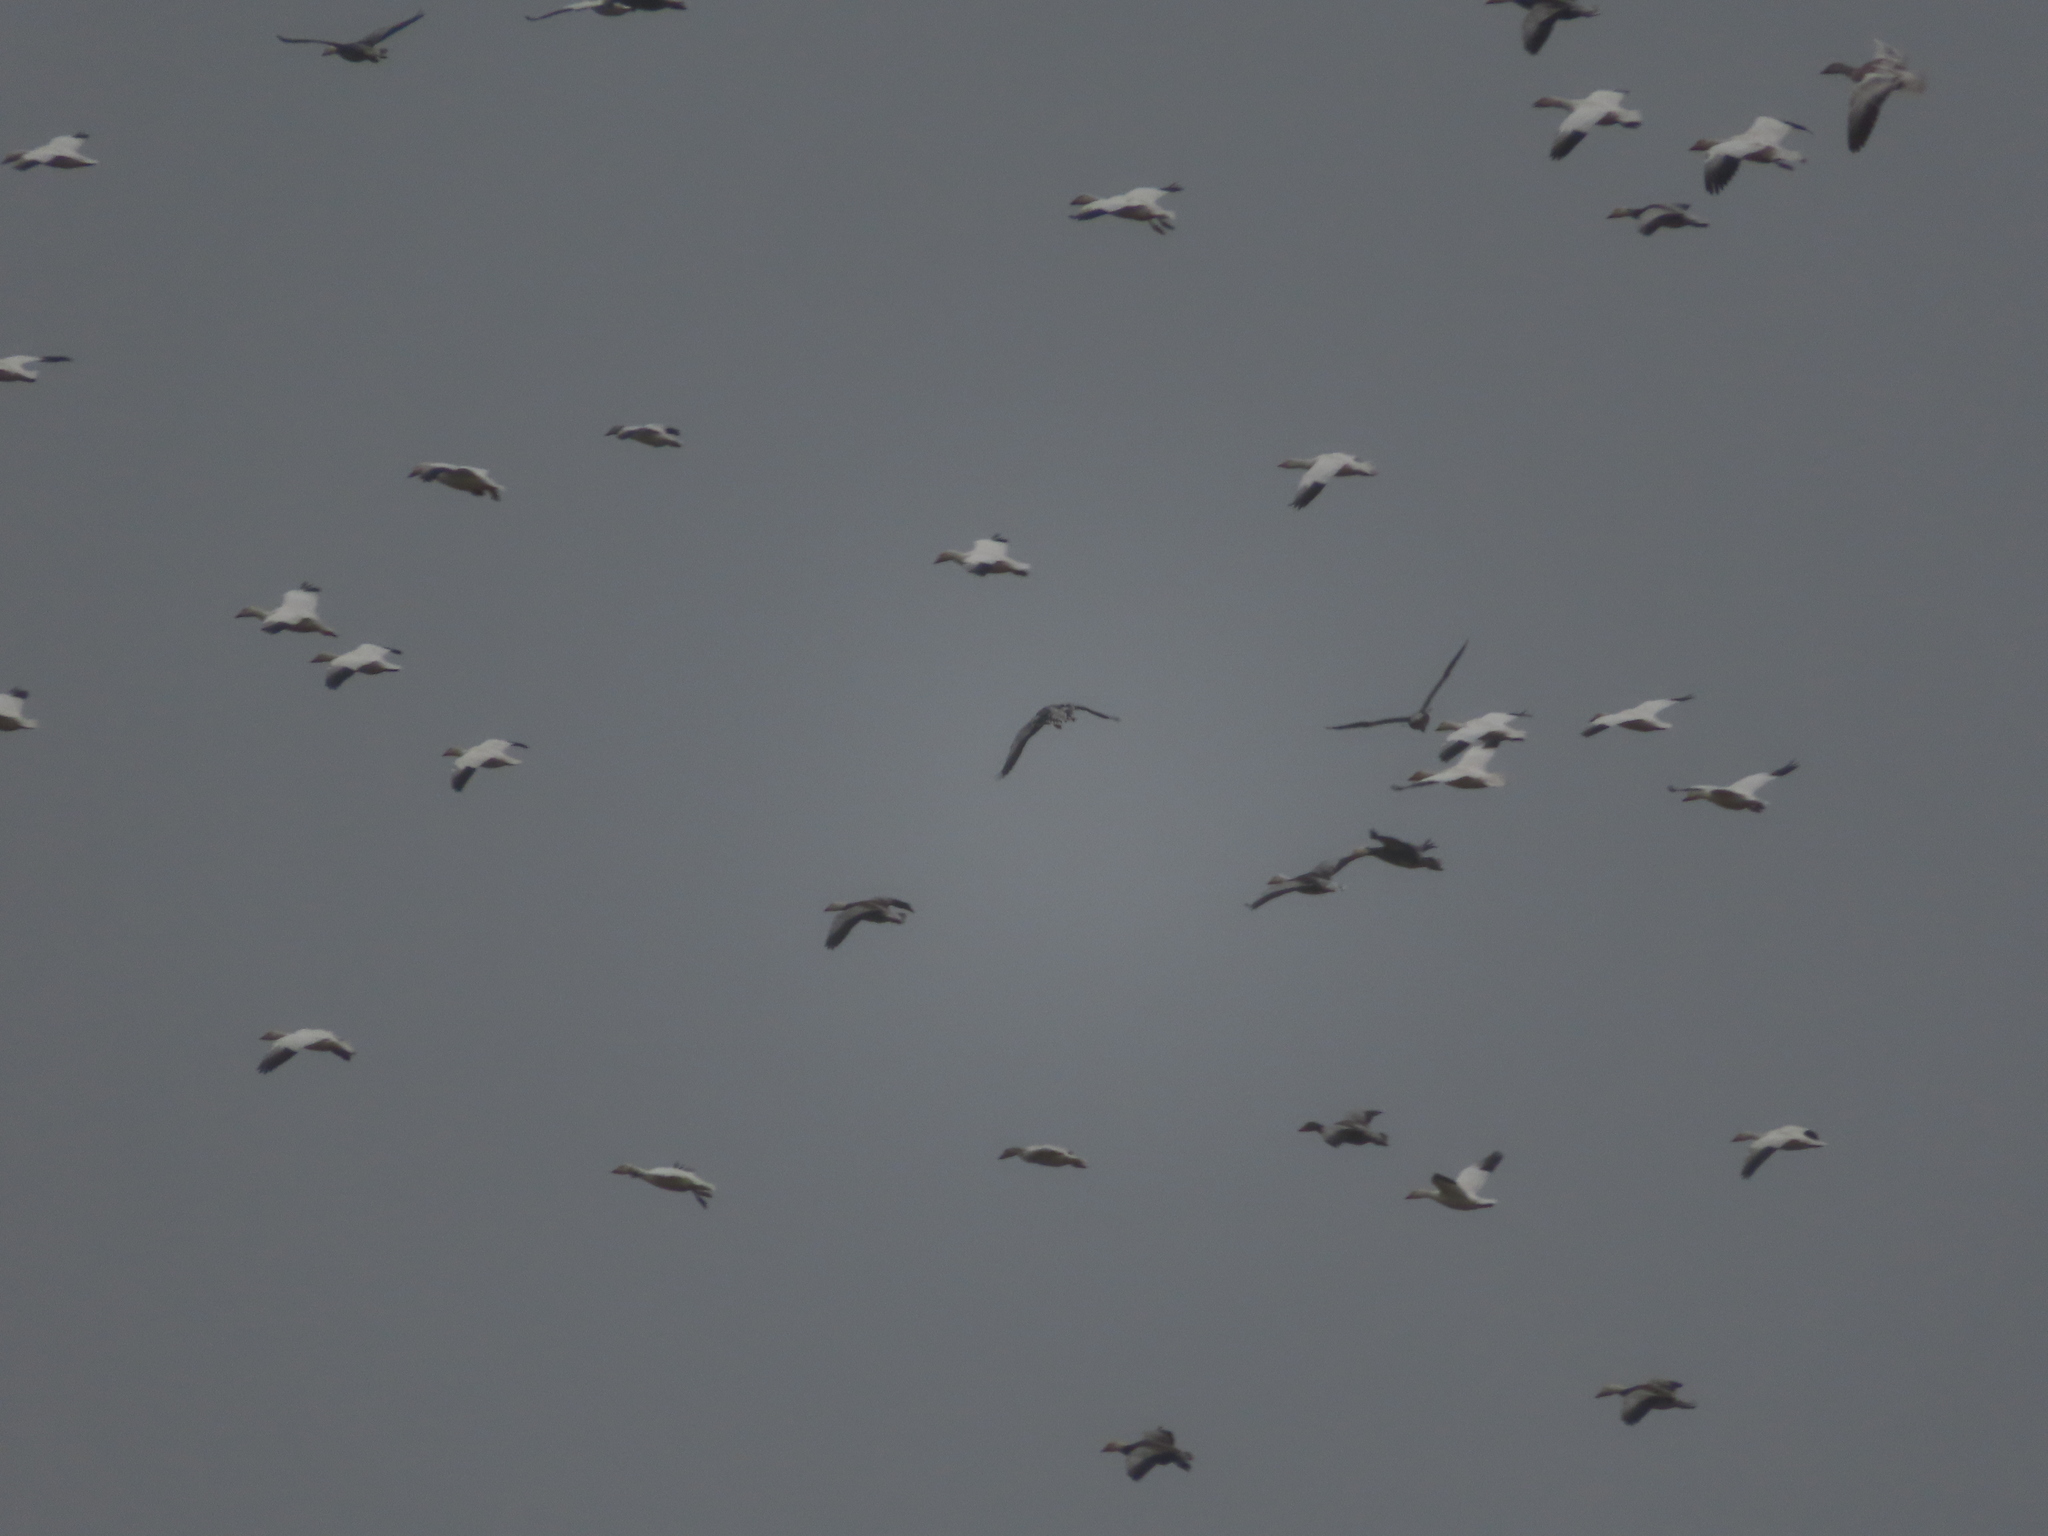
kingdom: Animalia
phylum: Chordata
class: Aves
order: Anseriformes
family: Anatidae
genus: Anser
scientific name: Anser caerulescens
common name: Snow goose
